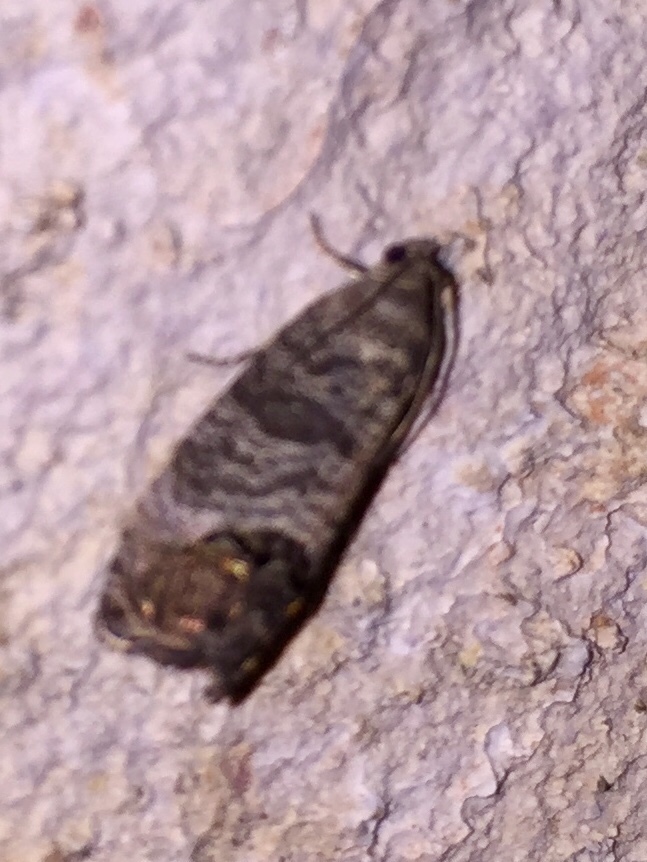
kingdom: Animalia
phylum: Arthropoda
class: Insecta
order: Lepidoptera
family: Tortricidae
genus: Cydia
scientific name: Cydia pomonella
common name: Codling moth
